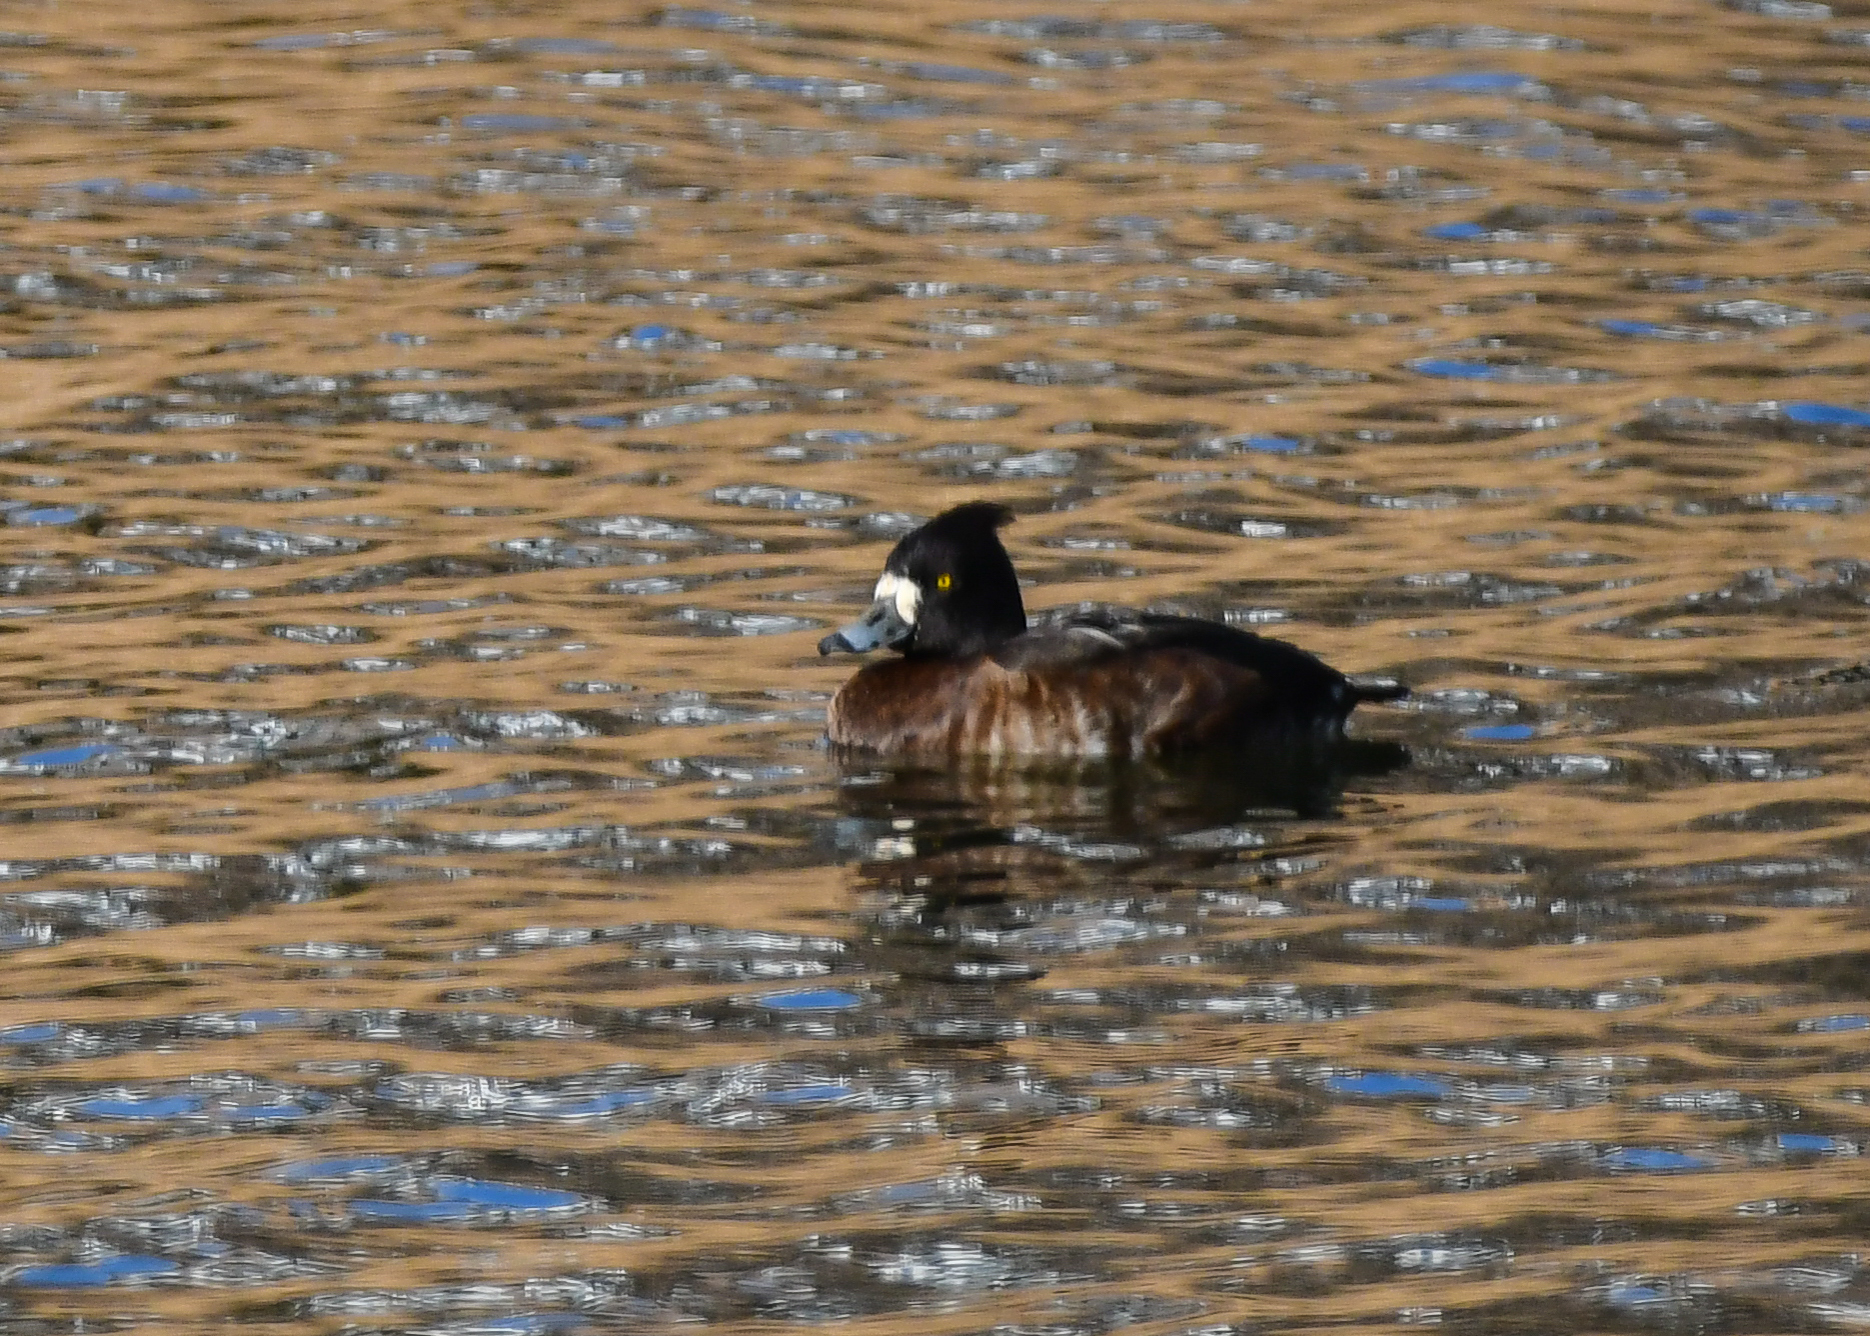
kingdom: Animalia
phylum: Chordata
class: Aves
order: Anseriformes
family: Anatidae
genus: Aythya
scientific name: Aythya fuligula
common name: Tufted duck
